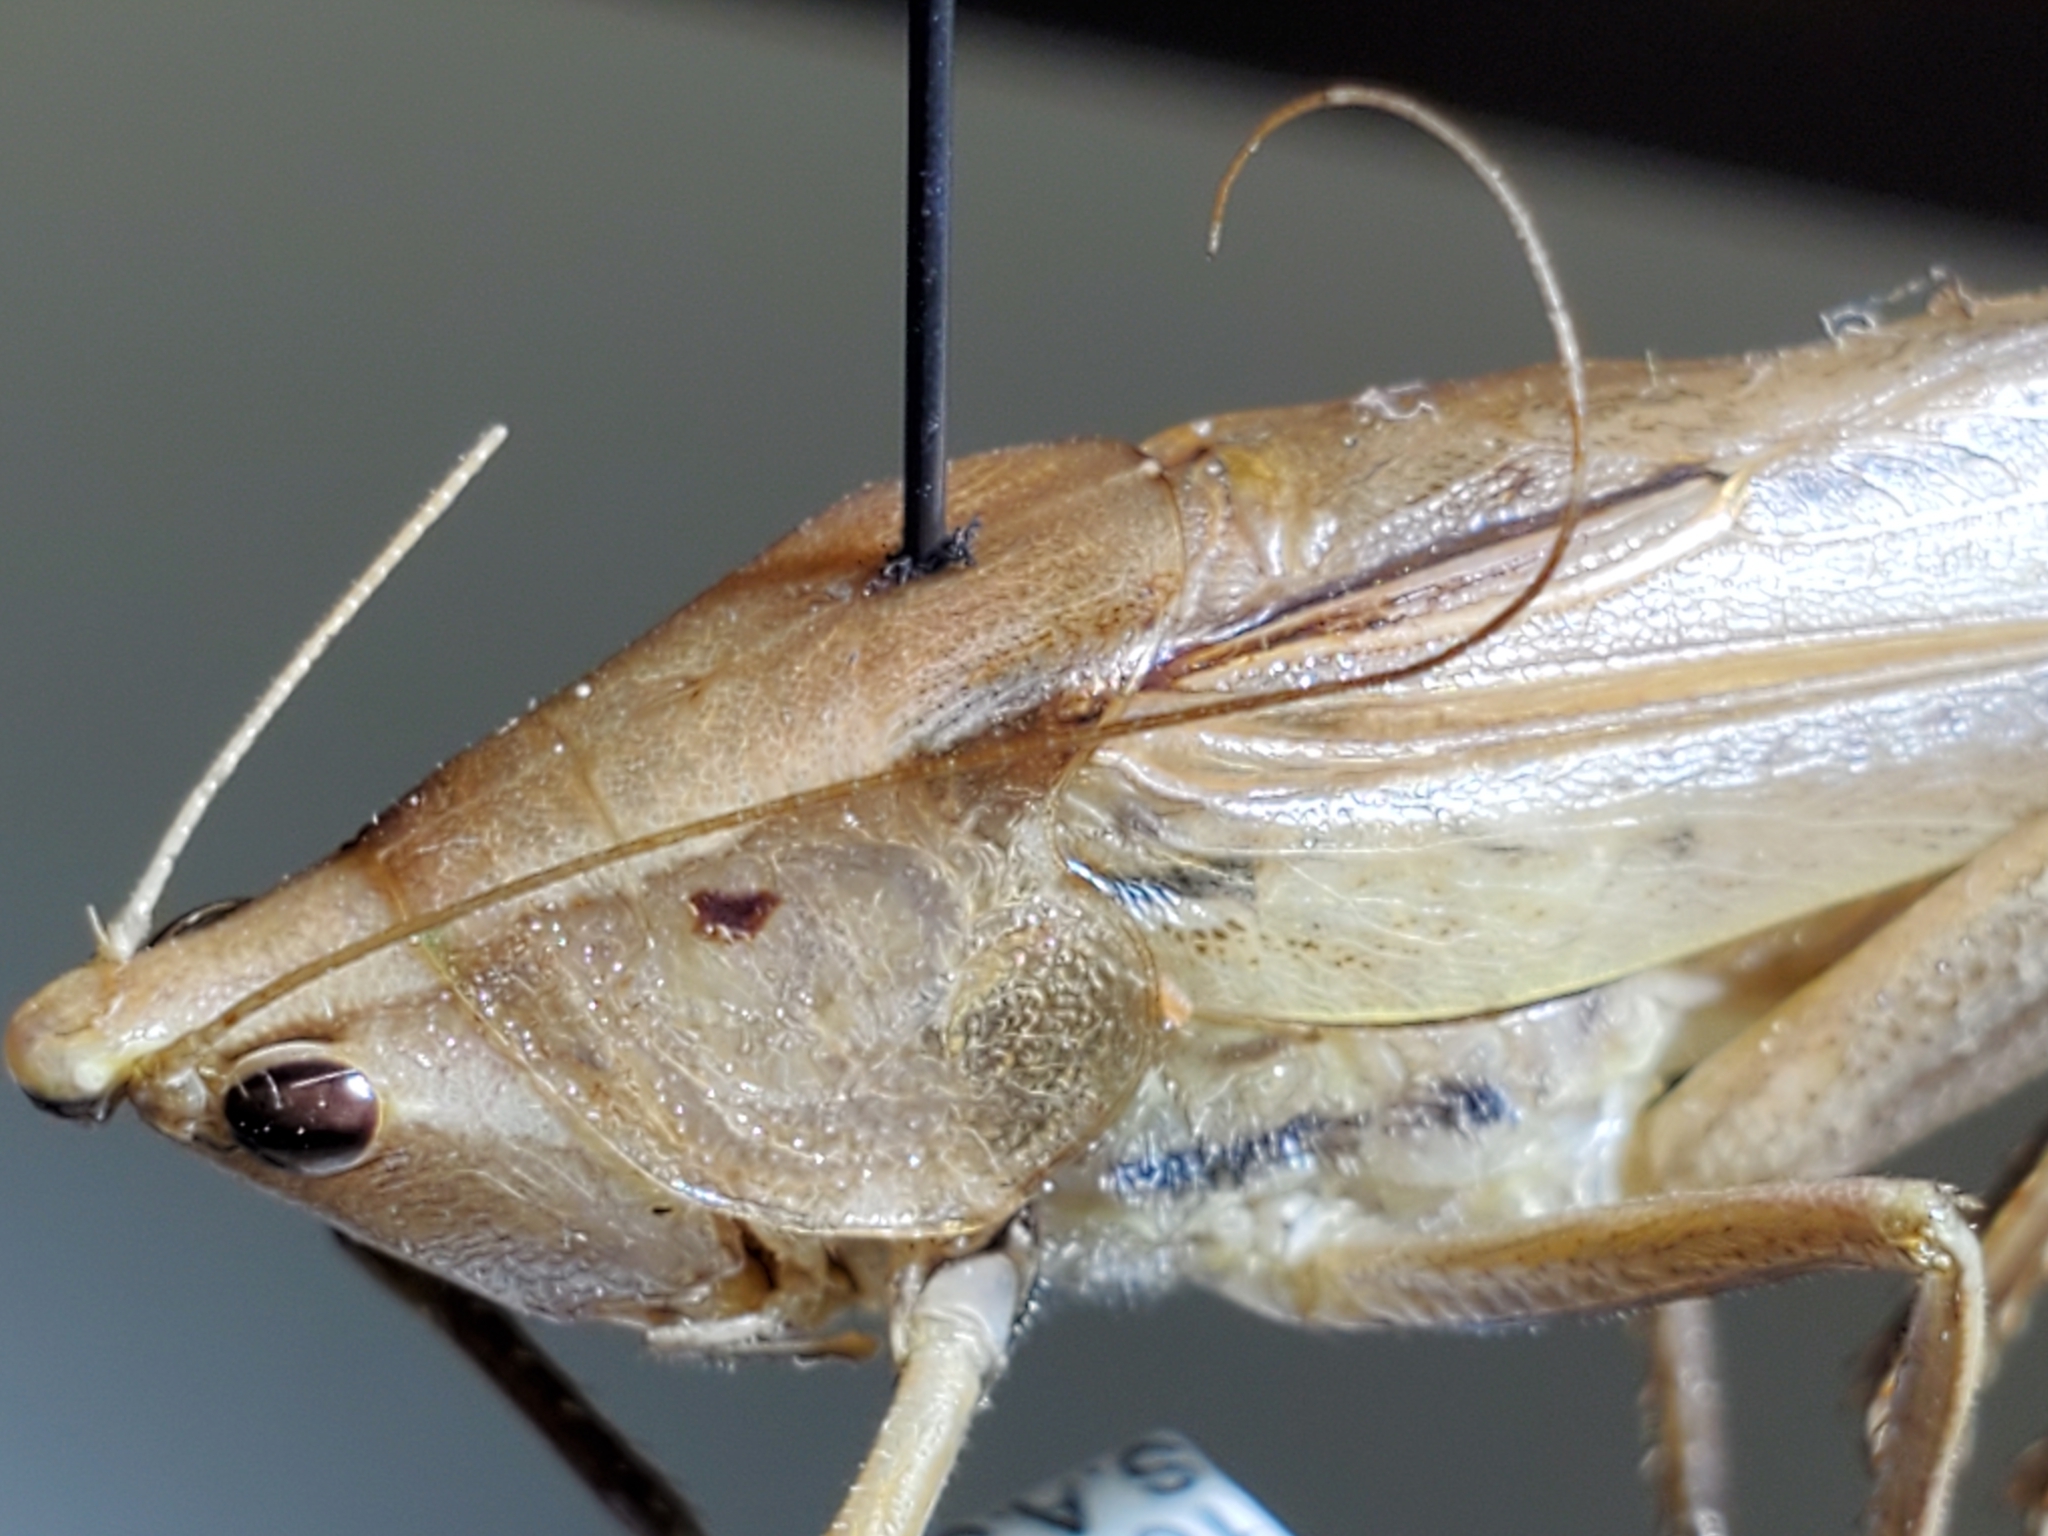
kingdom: Animalia
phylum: Arthropoda
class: Insecta
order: Orthoptera
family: Tettigoniidae
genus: Neoconocephalus
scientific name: Neoconocephalus triops
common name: Broad-tipped conehead
